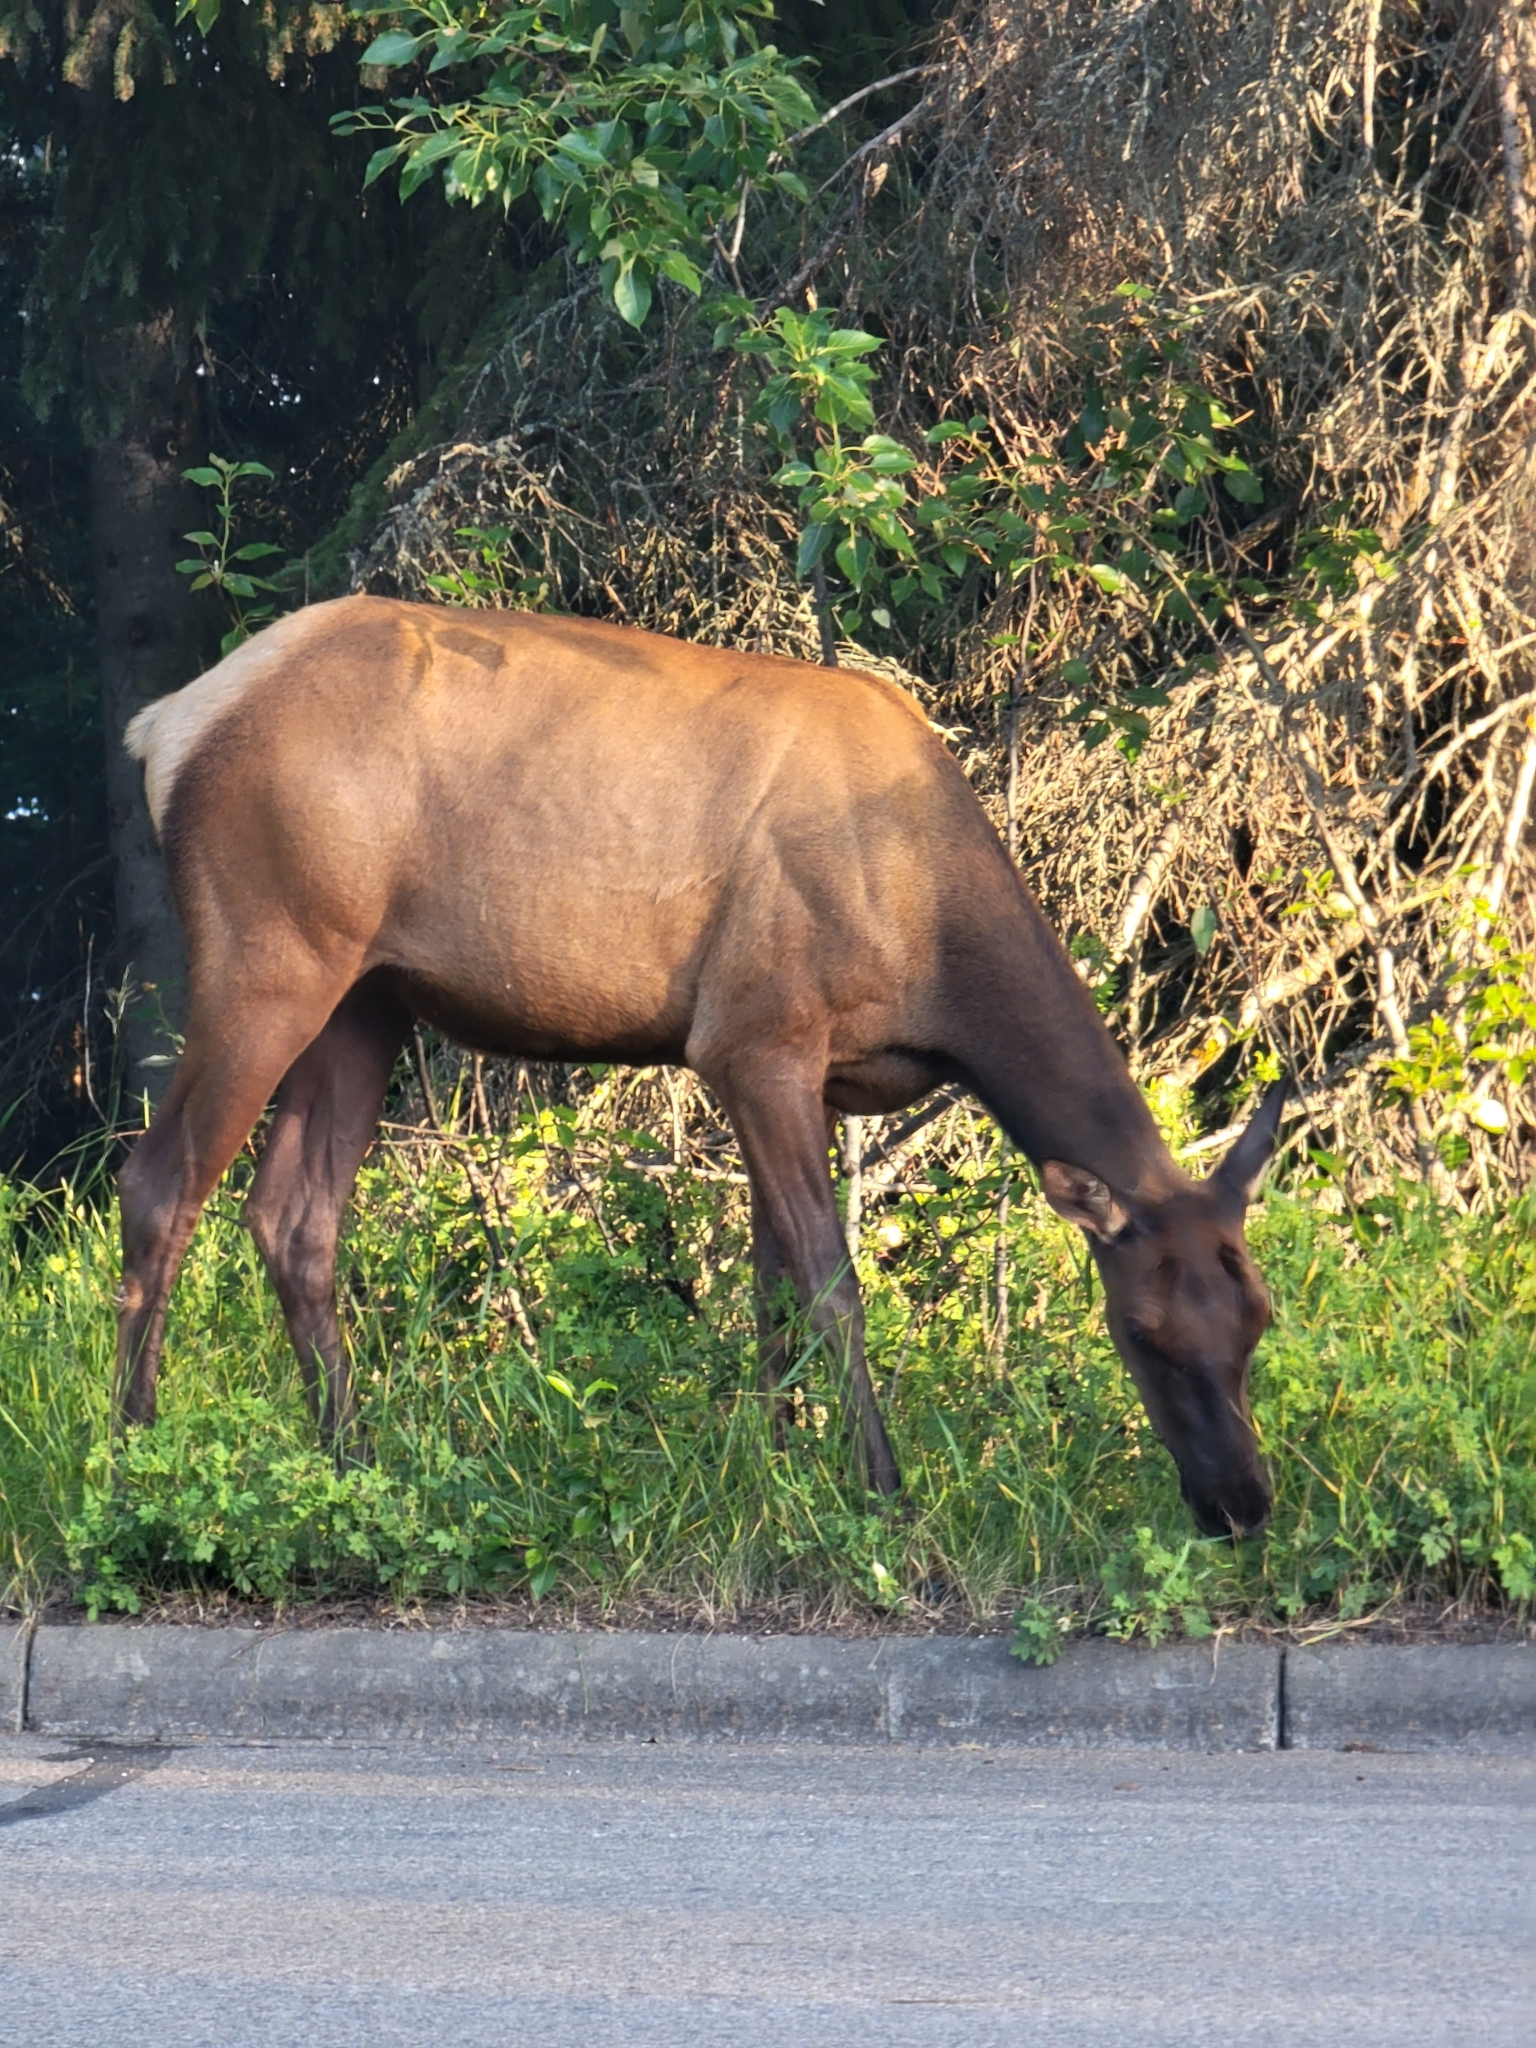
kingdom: Animalia
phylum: Chordata
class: Mammalia
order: Artiodactyla
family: Cervidae
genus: Cervus
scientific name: Cervus elaphus
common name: Red deer
